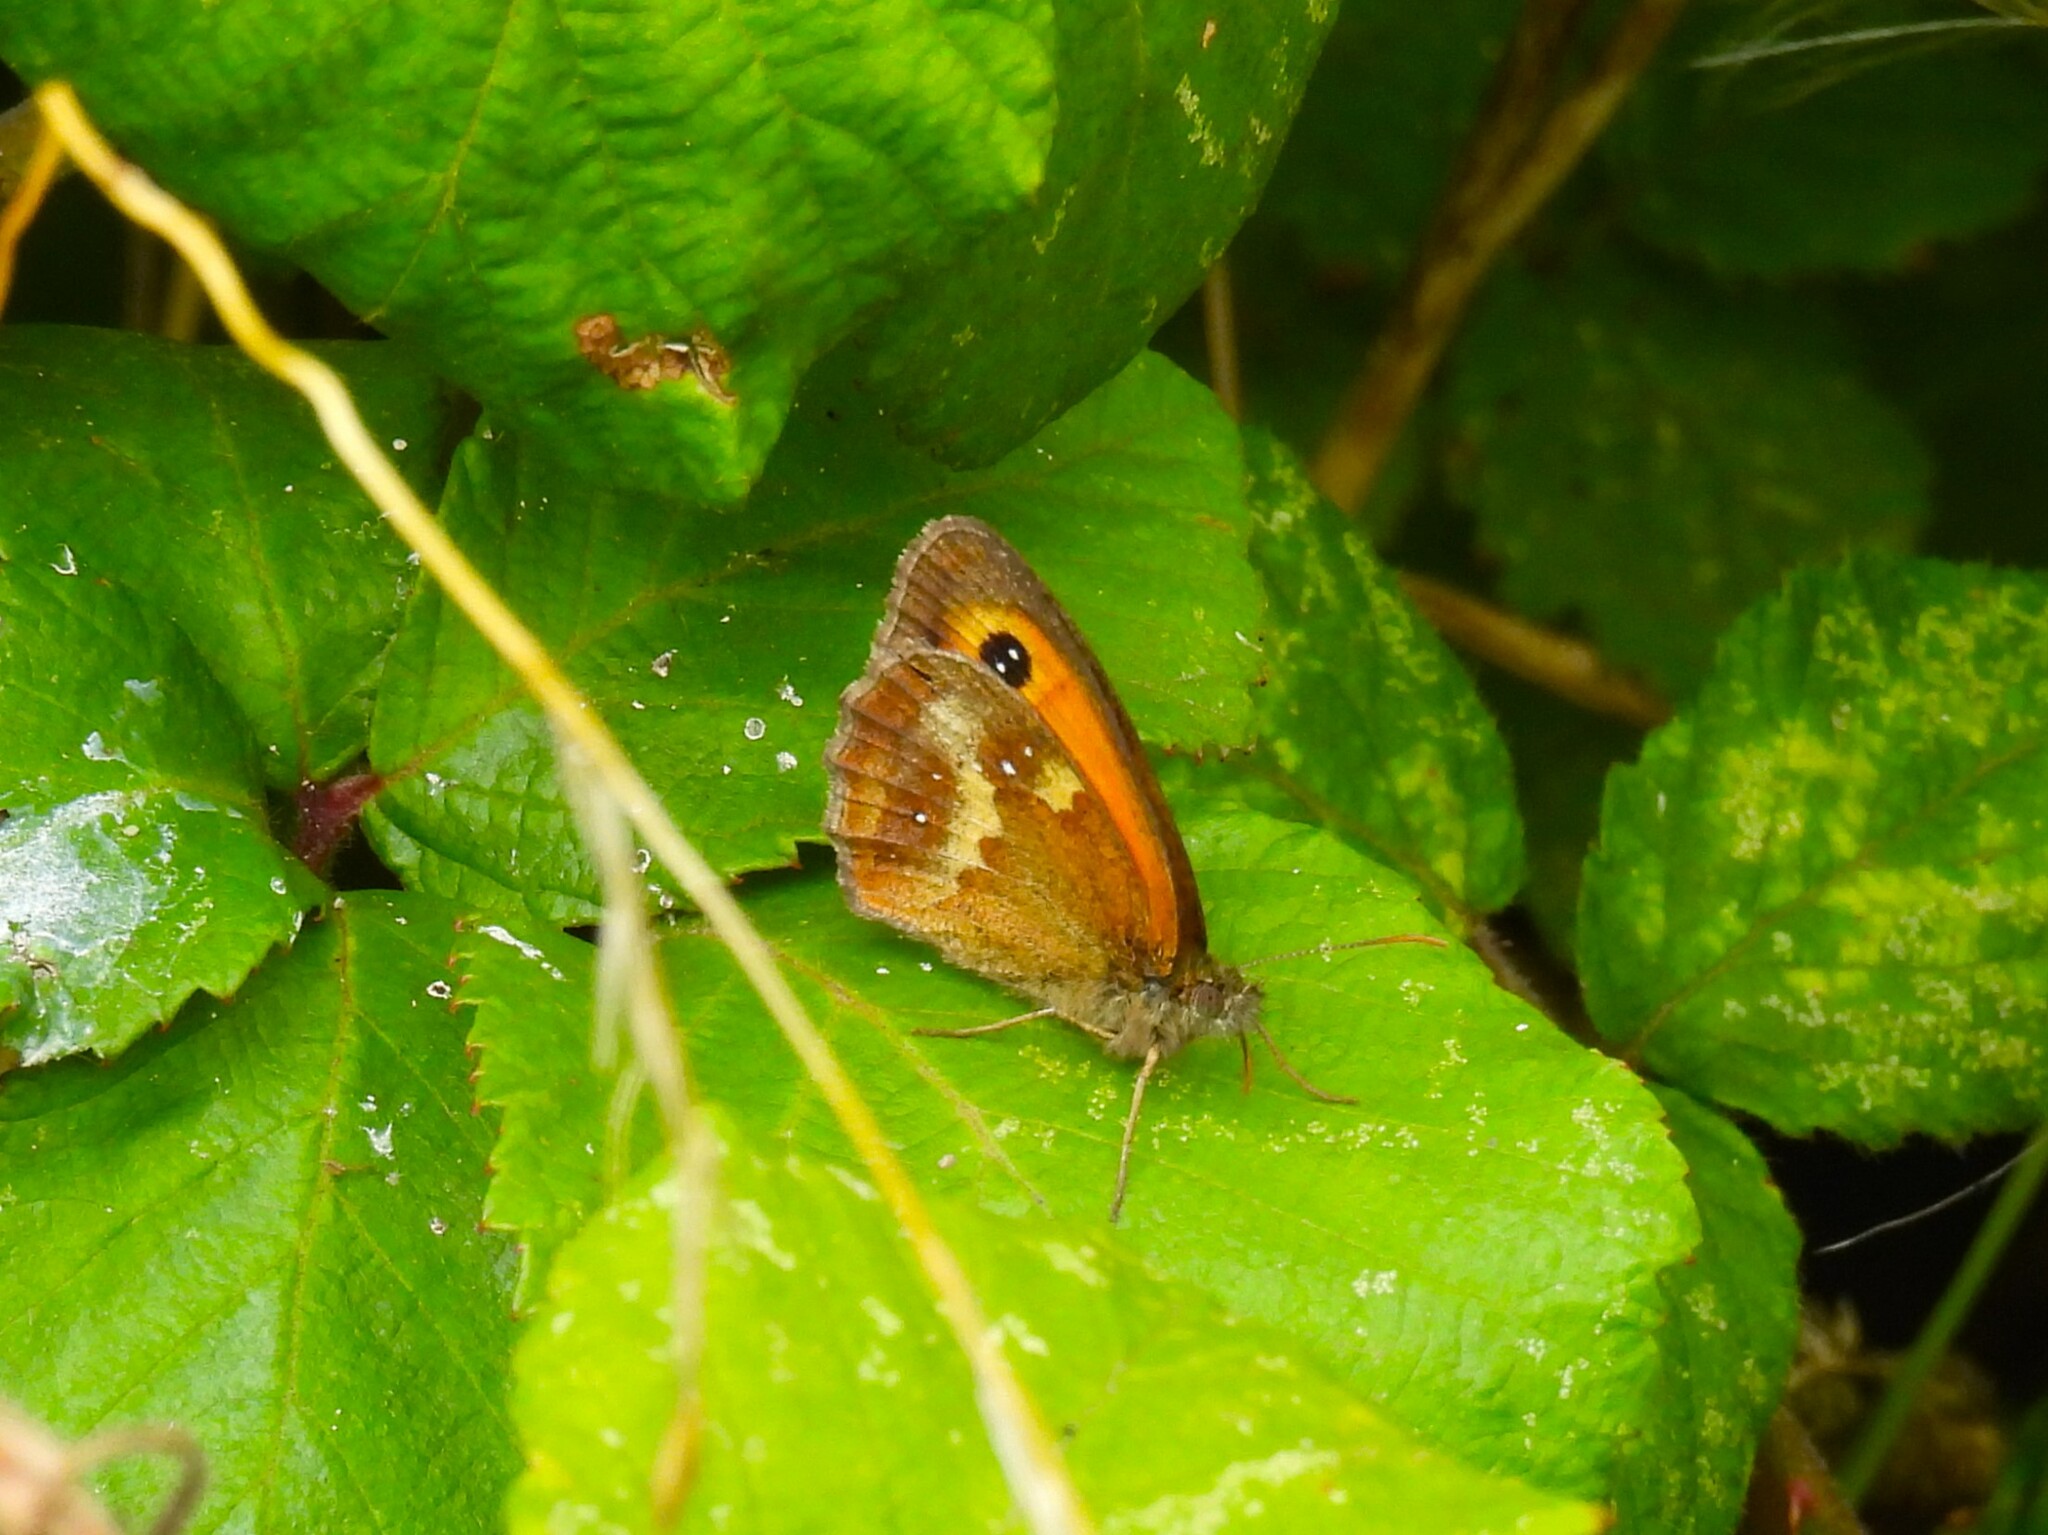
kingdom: Animalia
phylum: Arthropoda
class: Insecta
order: Lepidoptera
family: Nymphalidae
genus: Pyronia
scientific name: Pyronia tithonus
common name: Gatekeeper
